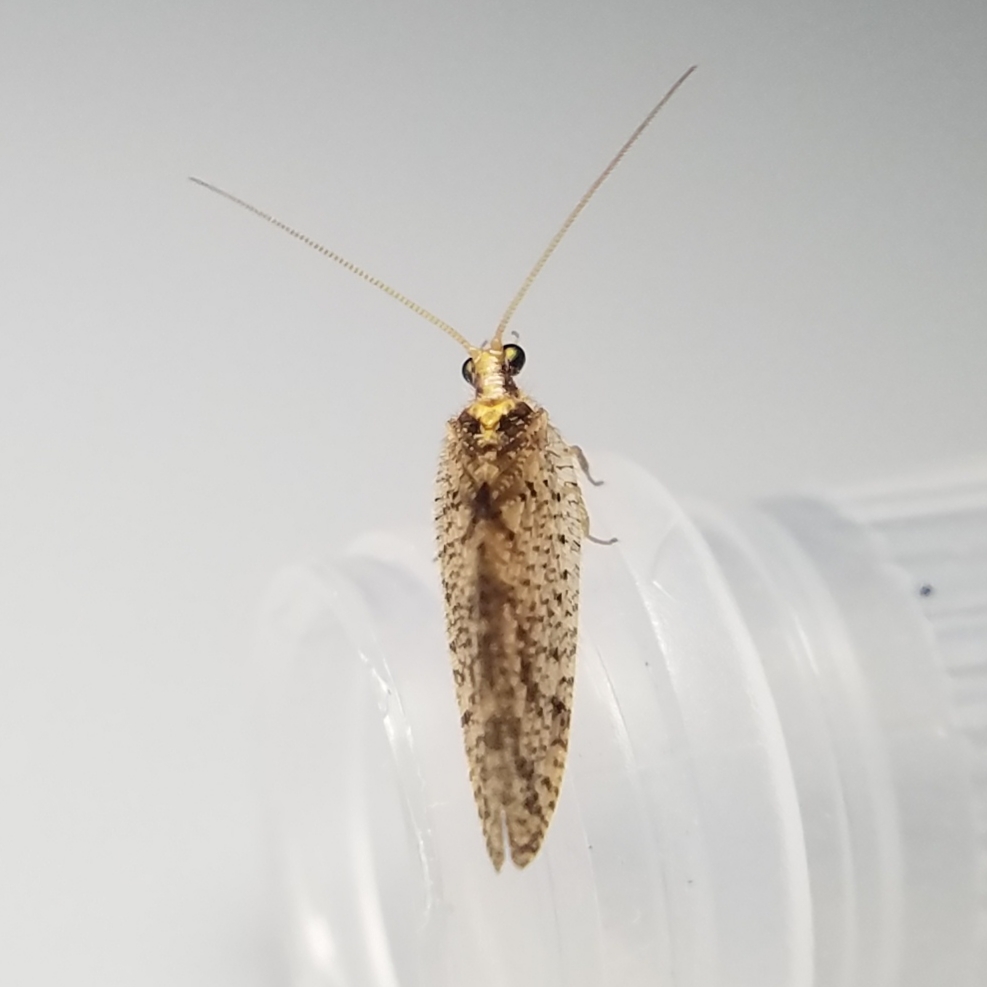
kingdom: Animalia
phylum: Arthropoda
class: Insecta
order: Neuroptera
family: Hemerobiidae
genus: Hemerobius
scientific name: Hemerobius humulinus
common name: Humulin brown lacewing
